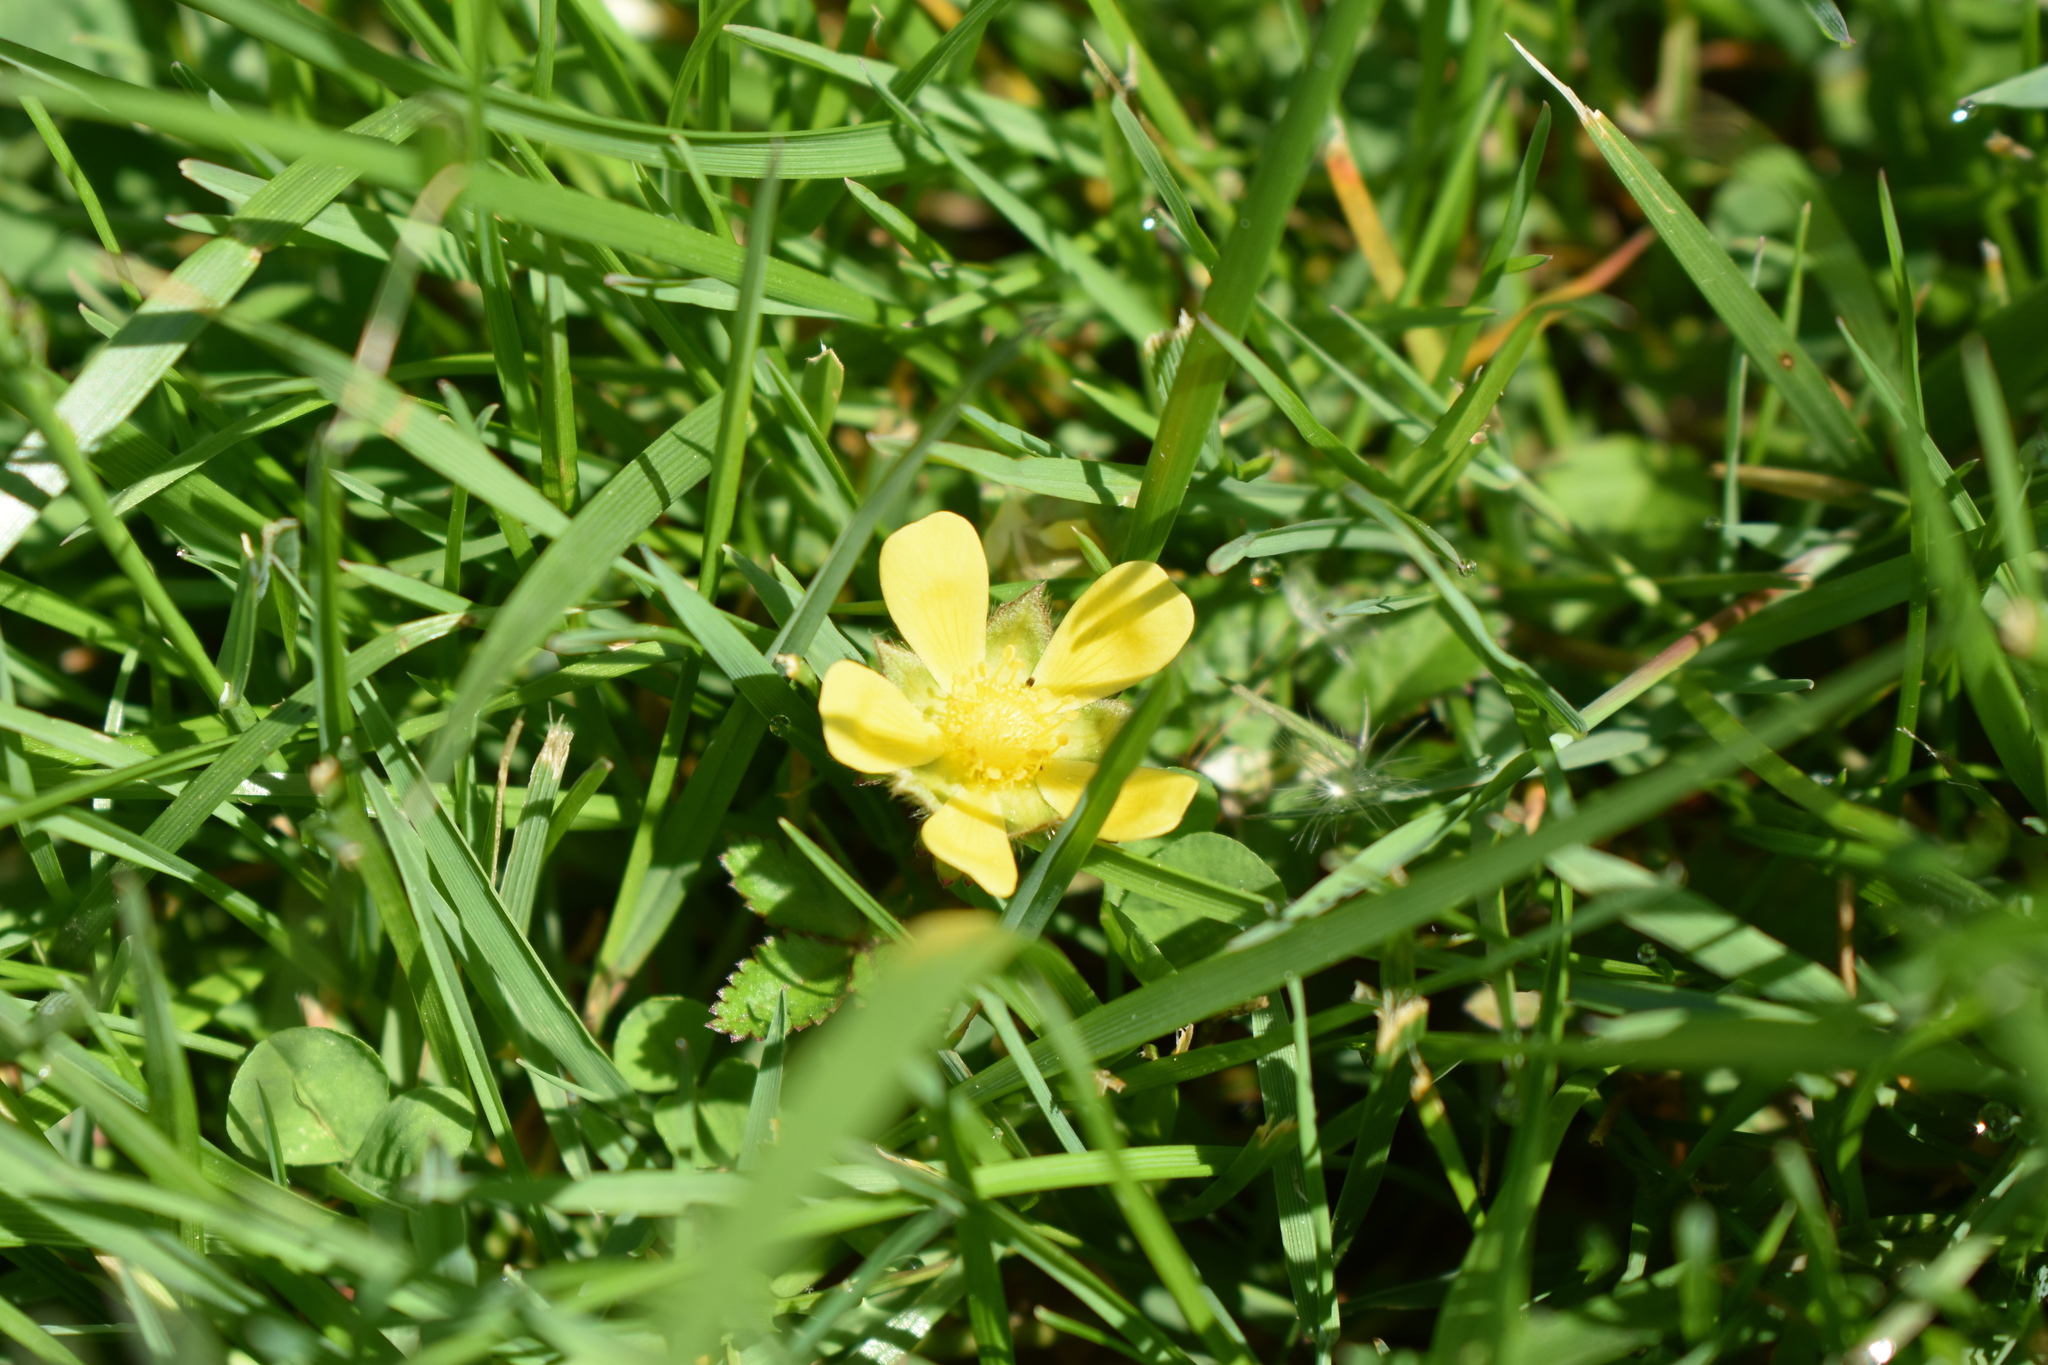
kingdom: Plantae
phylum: Tracheophyta
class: Magnoliopsida
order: Rosales
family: Rosaceae
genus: Potentilla
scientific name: Potentilla indica
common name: Yellow-flowered strawberry
